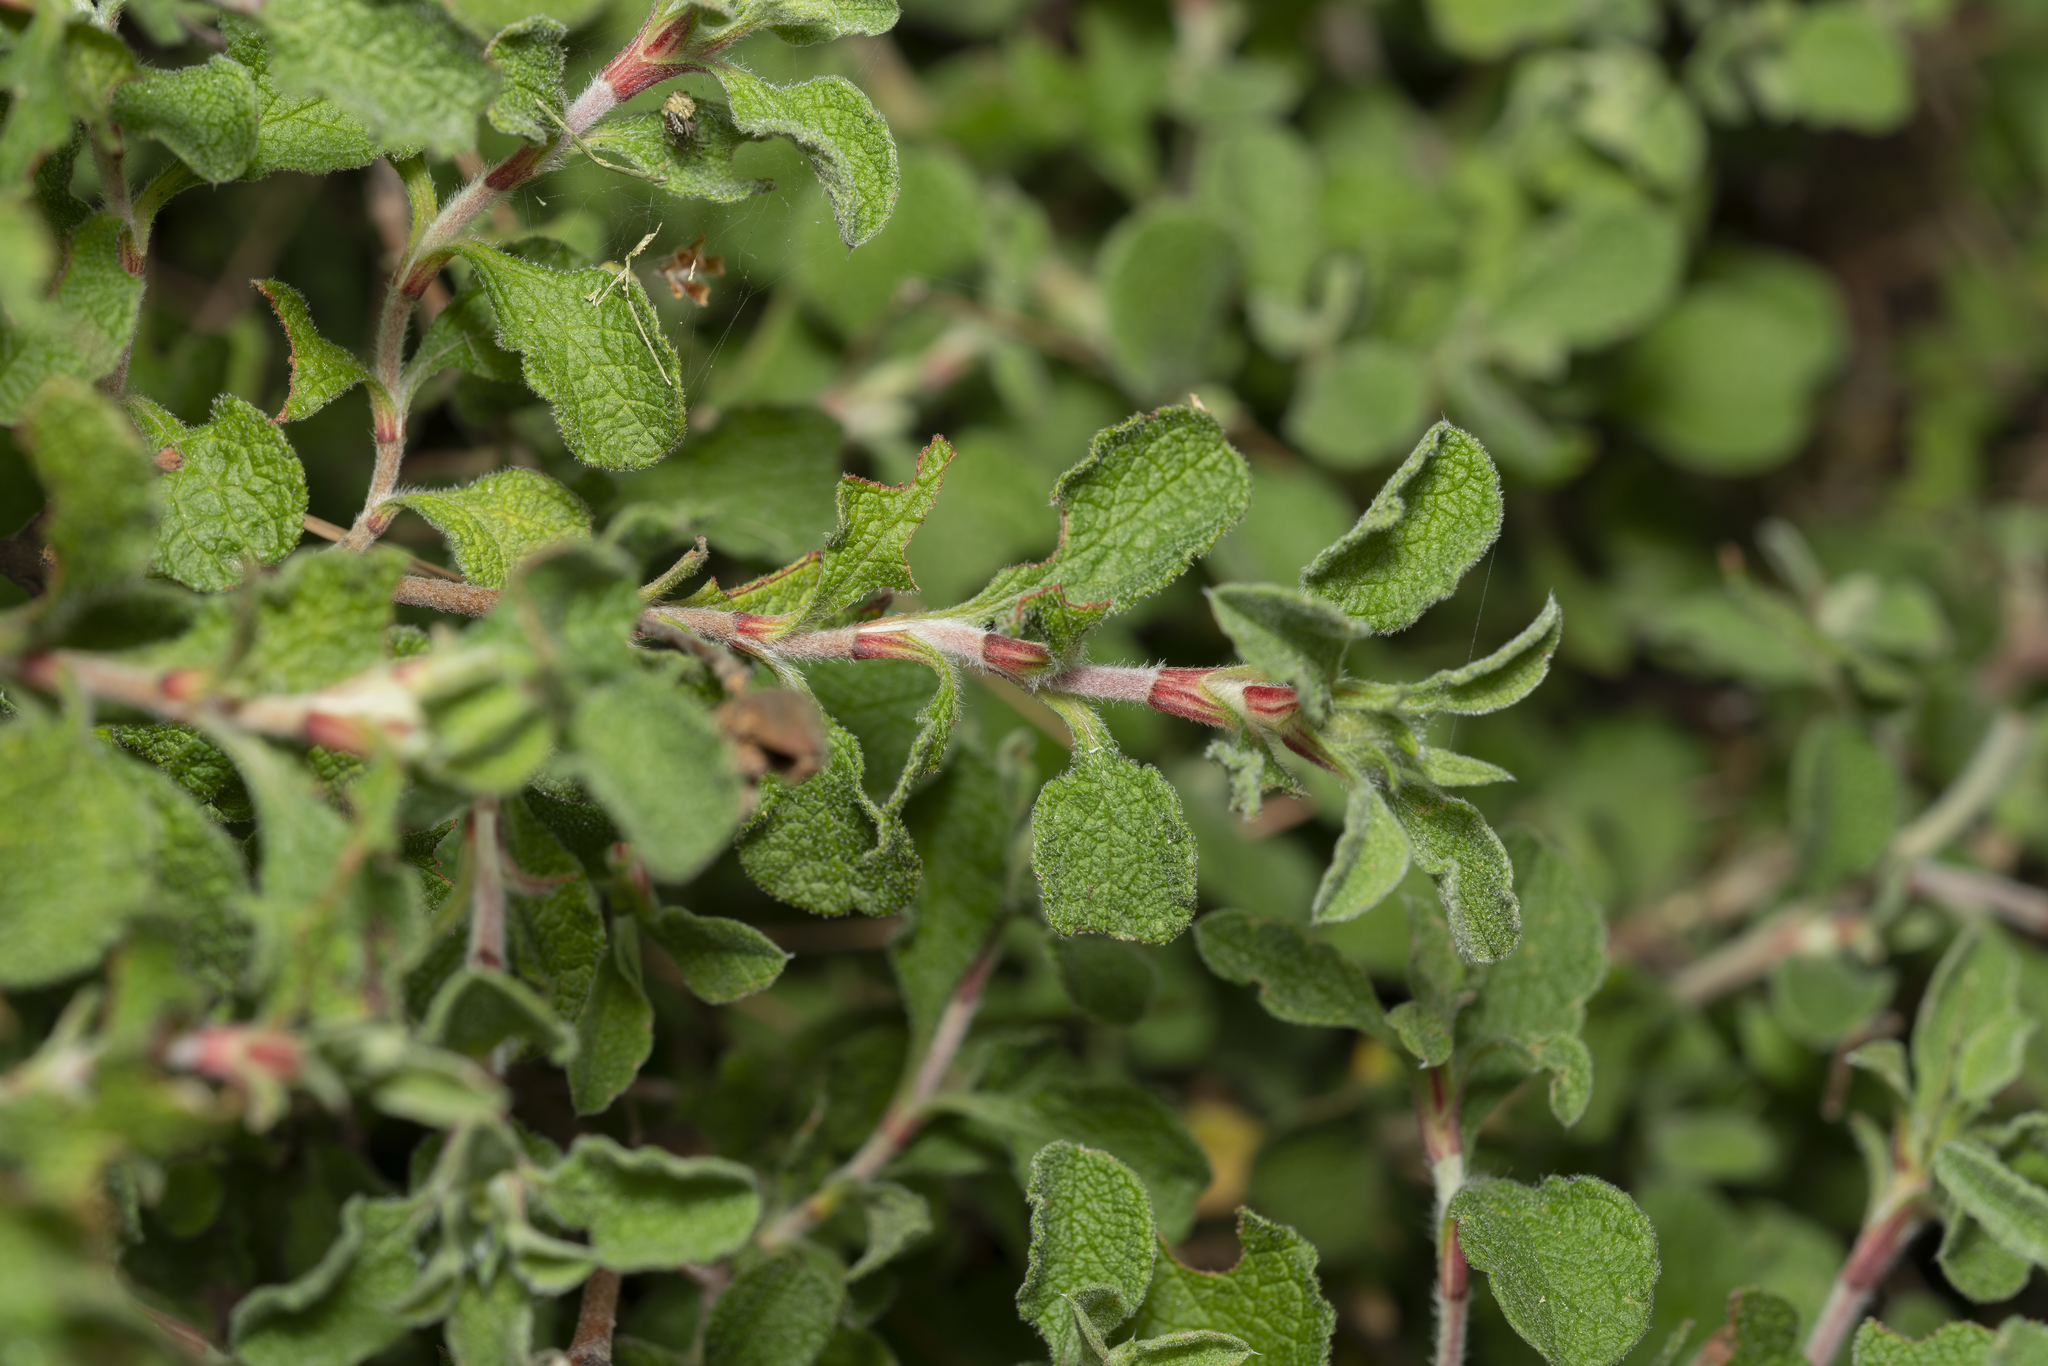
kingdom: Plantae
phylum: Tracheophyta
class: Magnoliopsida
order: Malvales
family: Cistaceae
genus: Cistus
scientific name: Cistus salviifolius
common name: Salvia cistus
